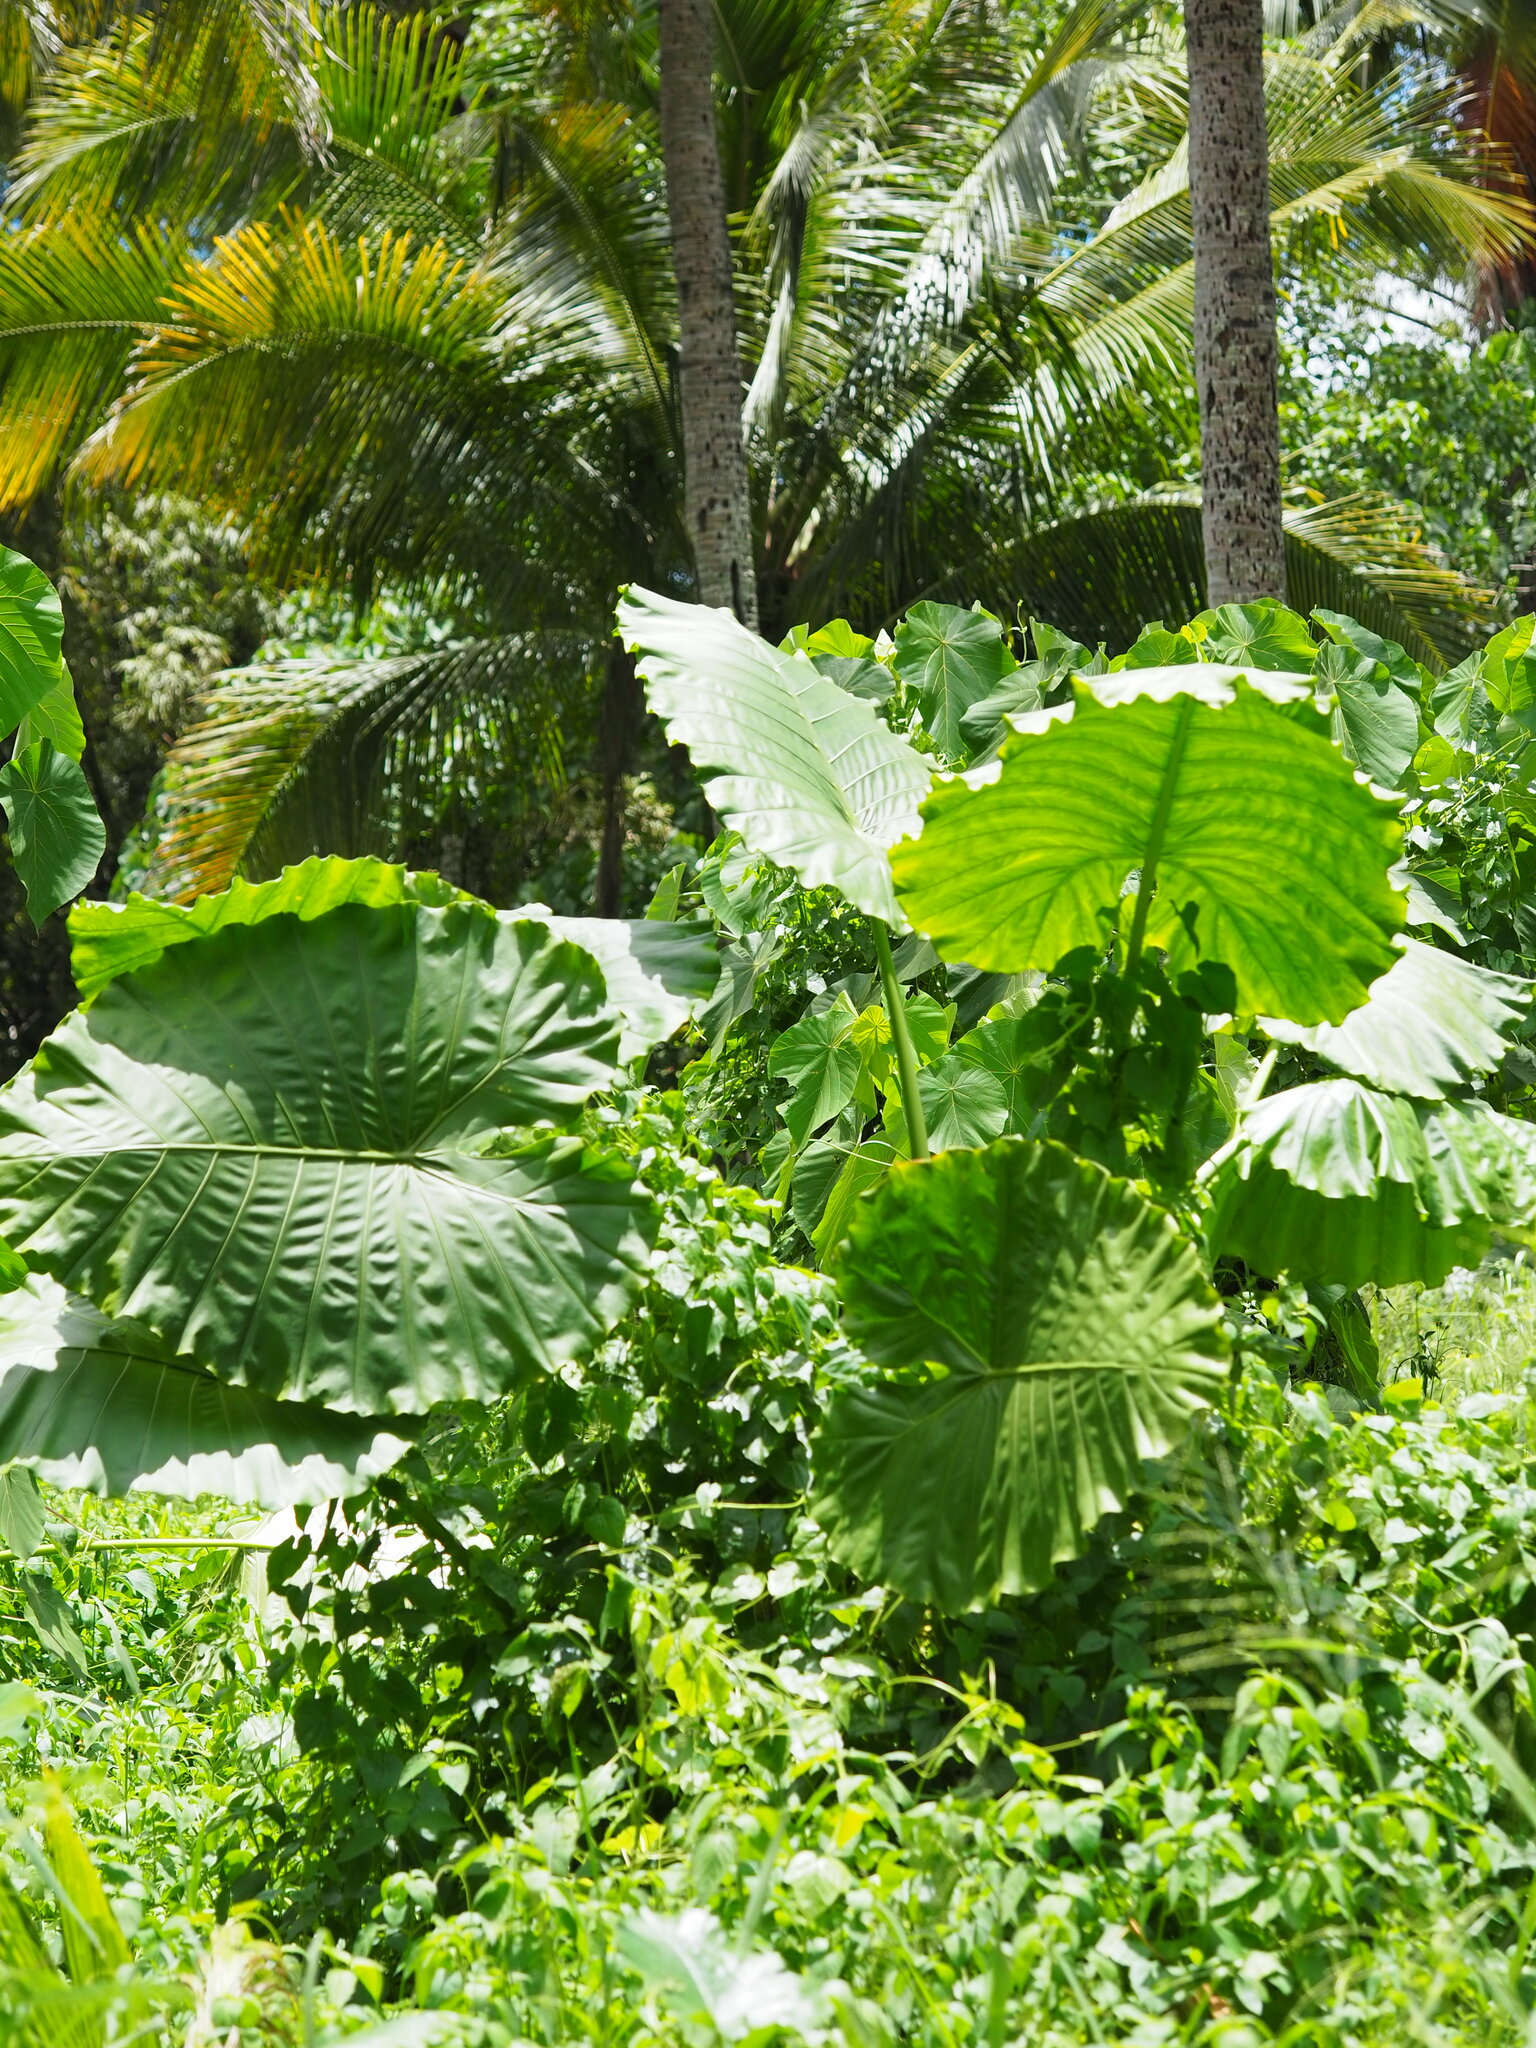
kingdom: Plantae
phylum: Tracheophyta
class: Liliopsida
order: Alismatales
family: Araceae
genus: Alocasia
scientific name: Alocasia odora
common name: Asian taro
